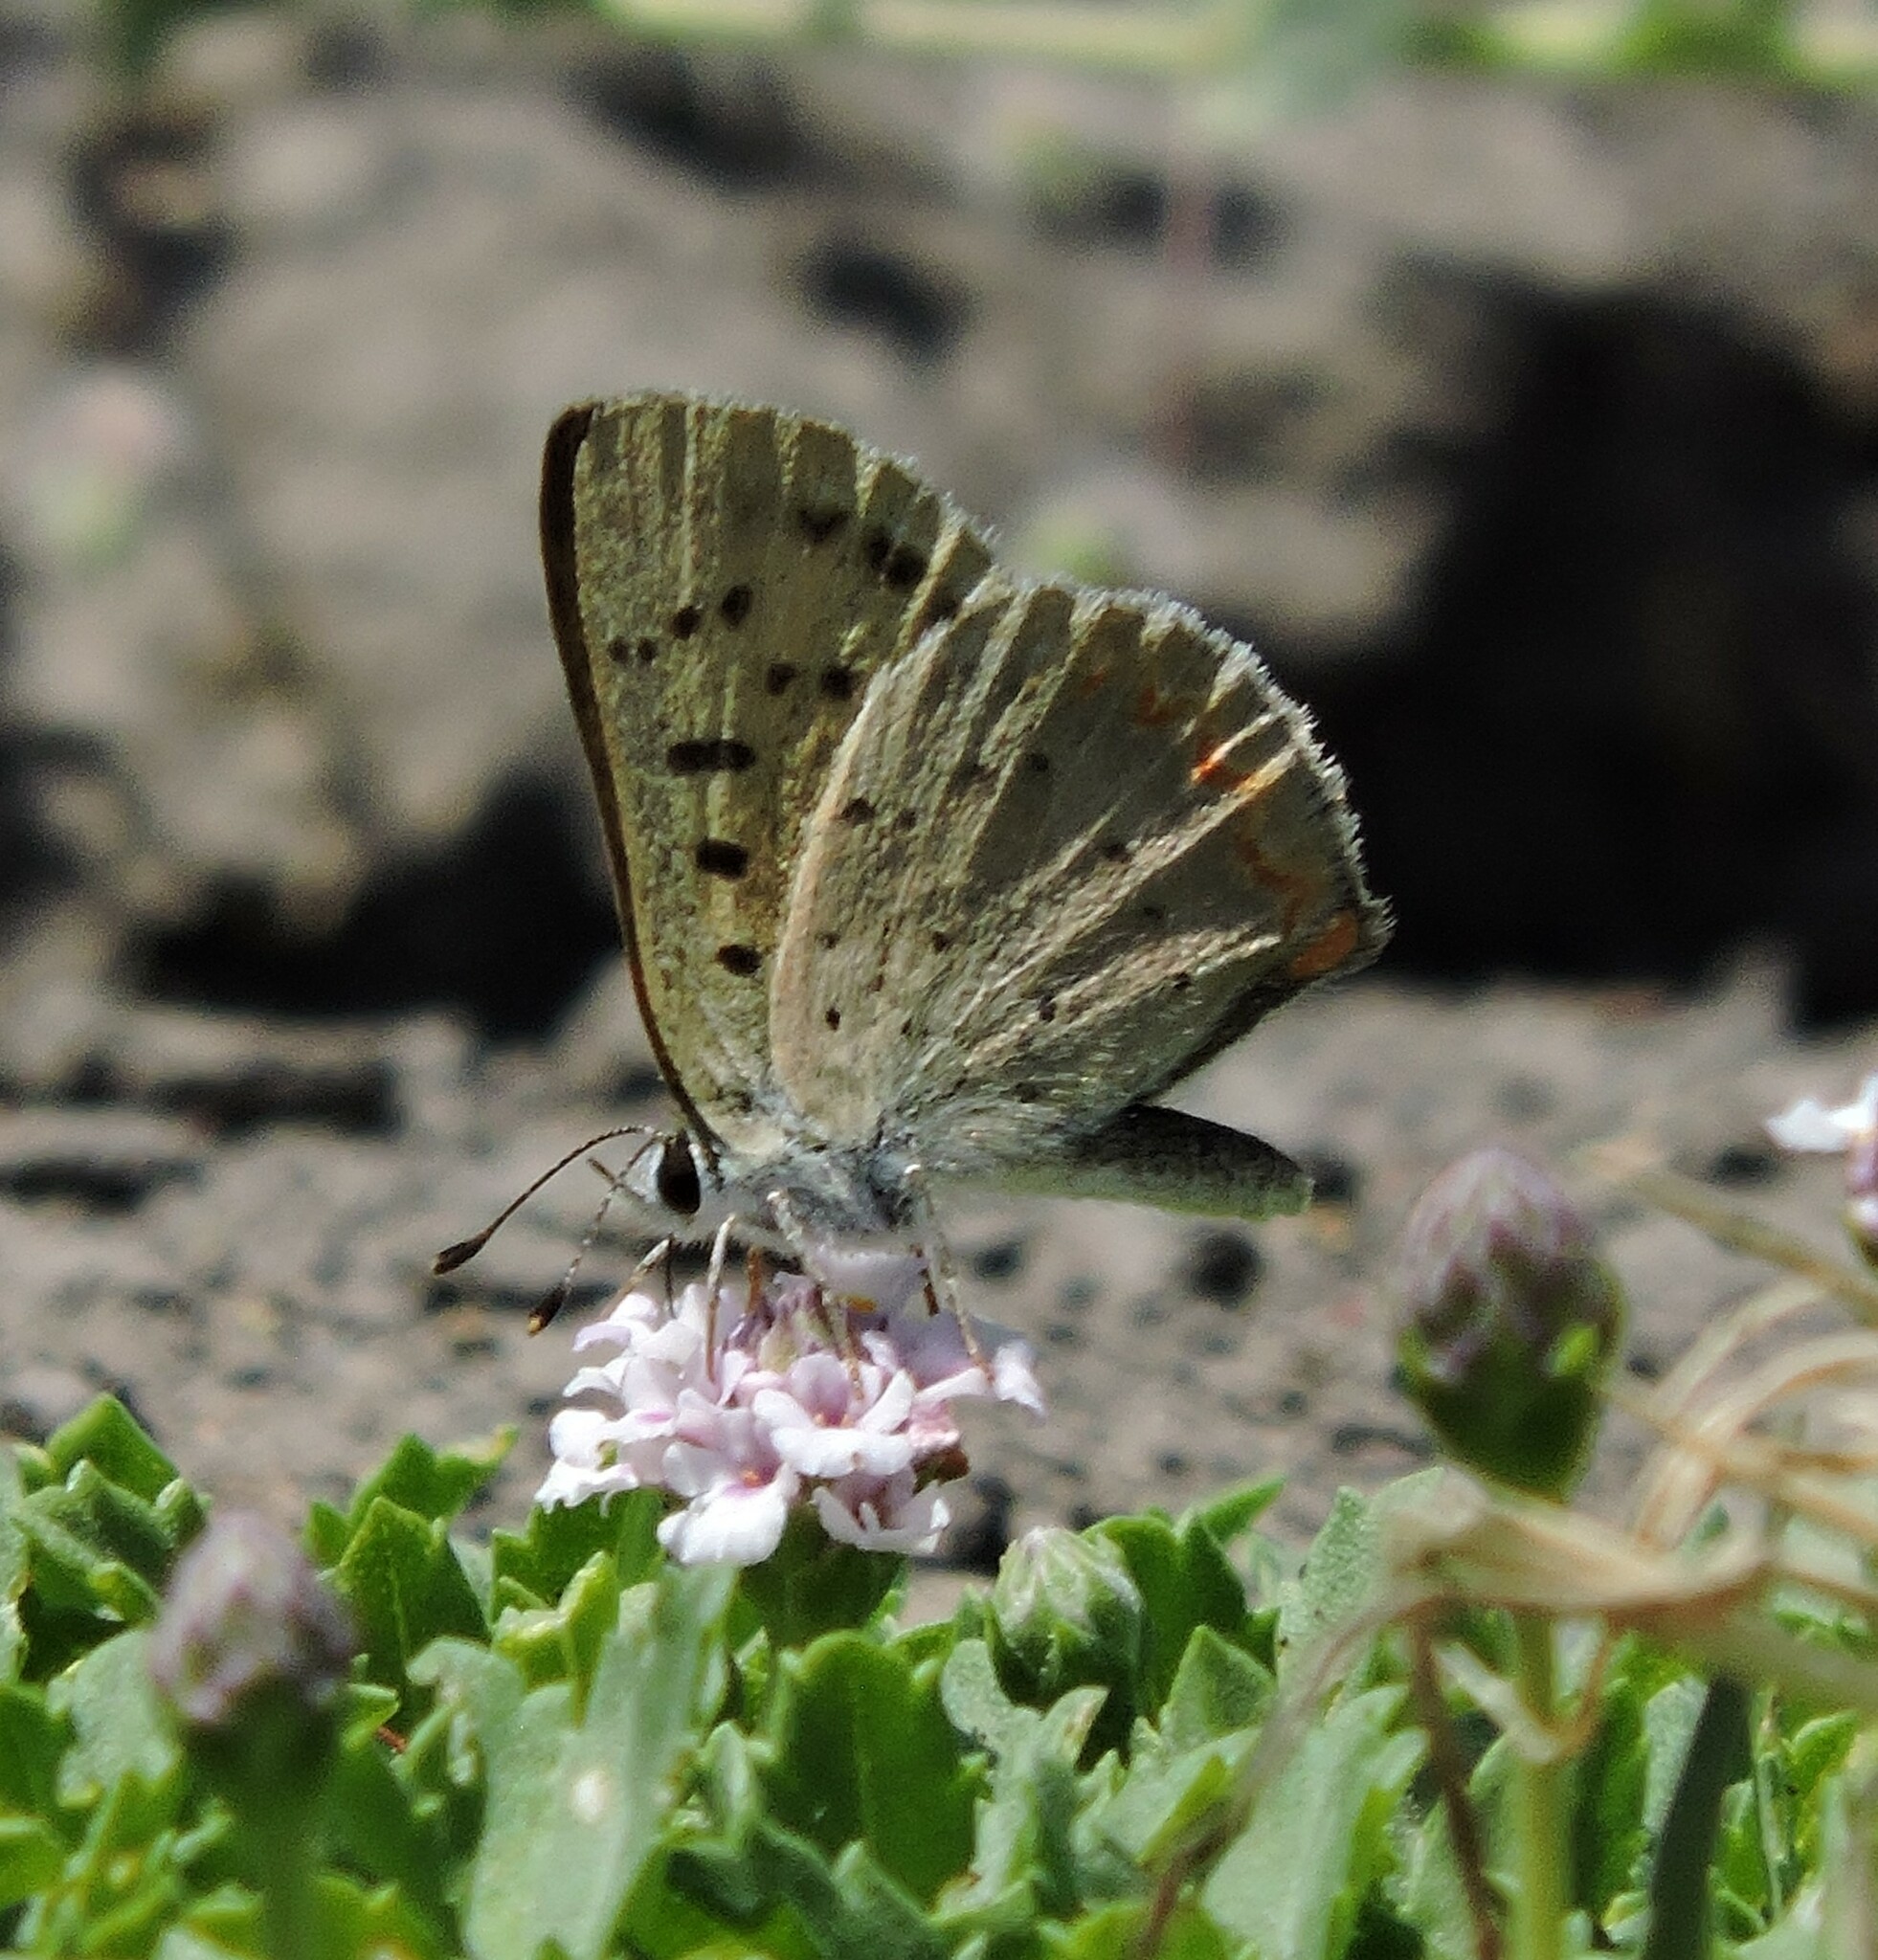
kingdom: Animalia
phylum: Arthropoda
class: Insecta
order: Lepidoptera
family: Lycaenidae
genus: Tharsalea
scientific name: Tharsalea helloides
